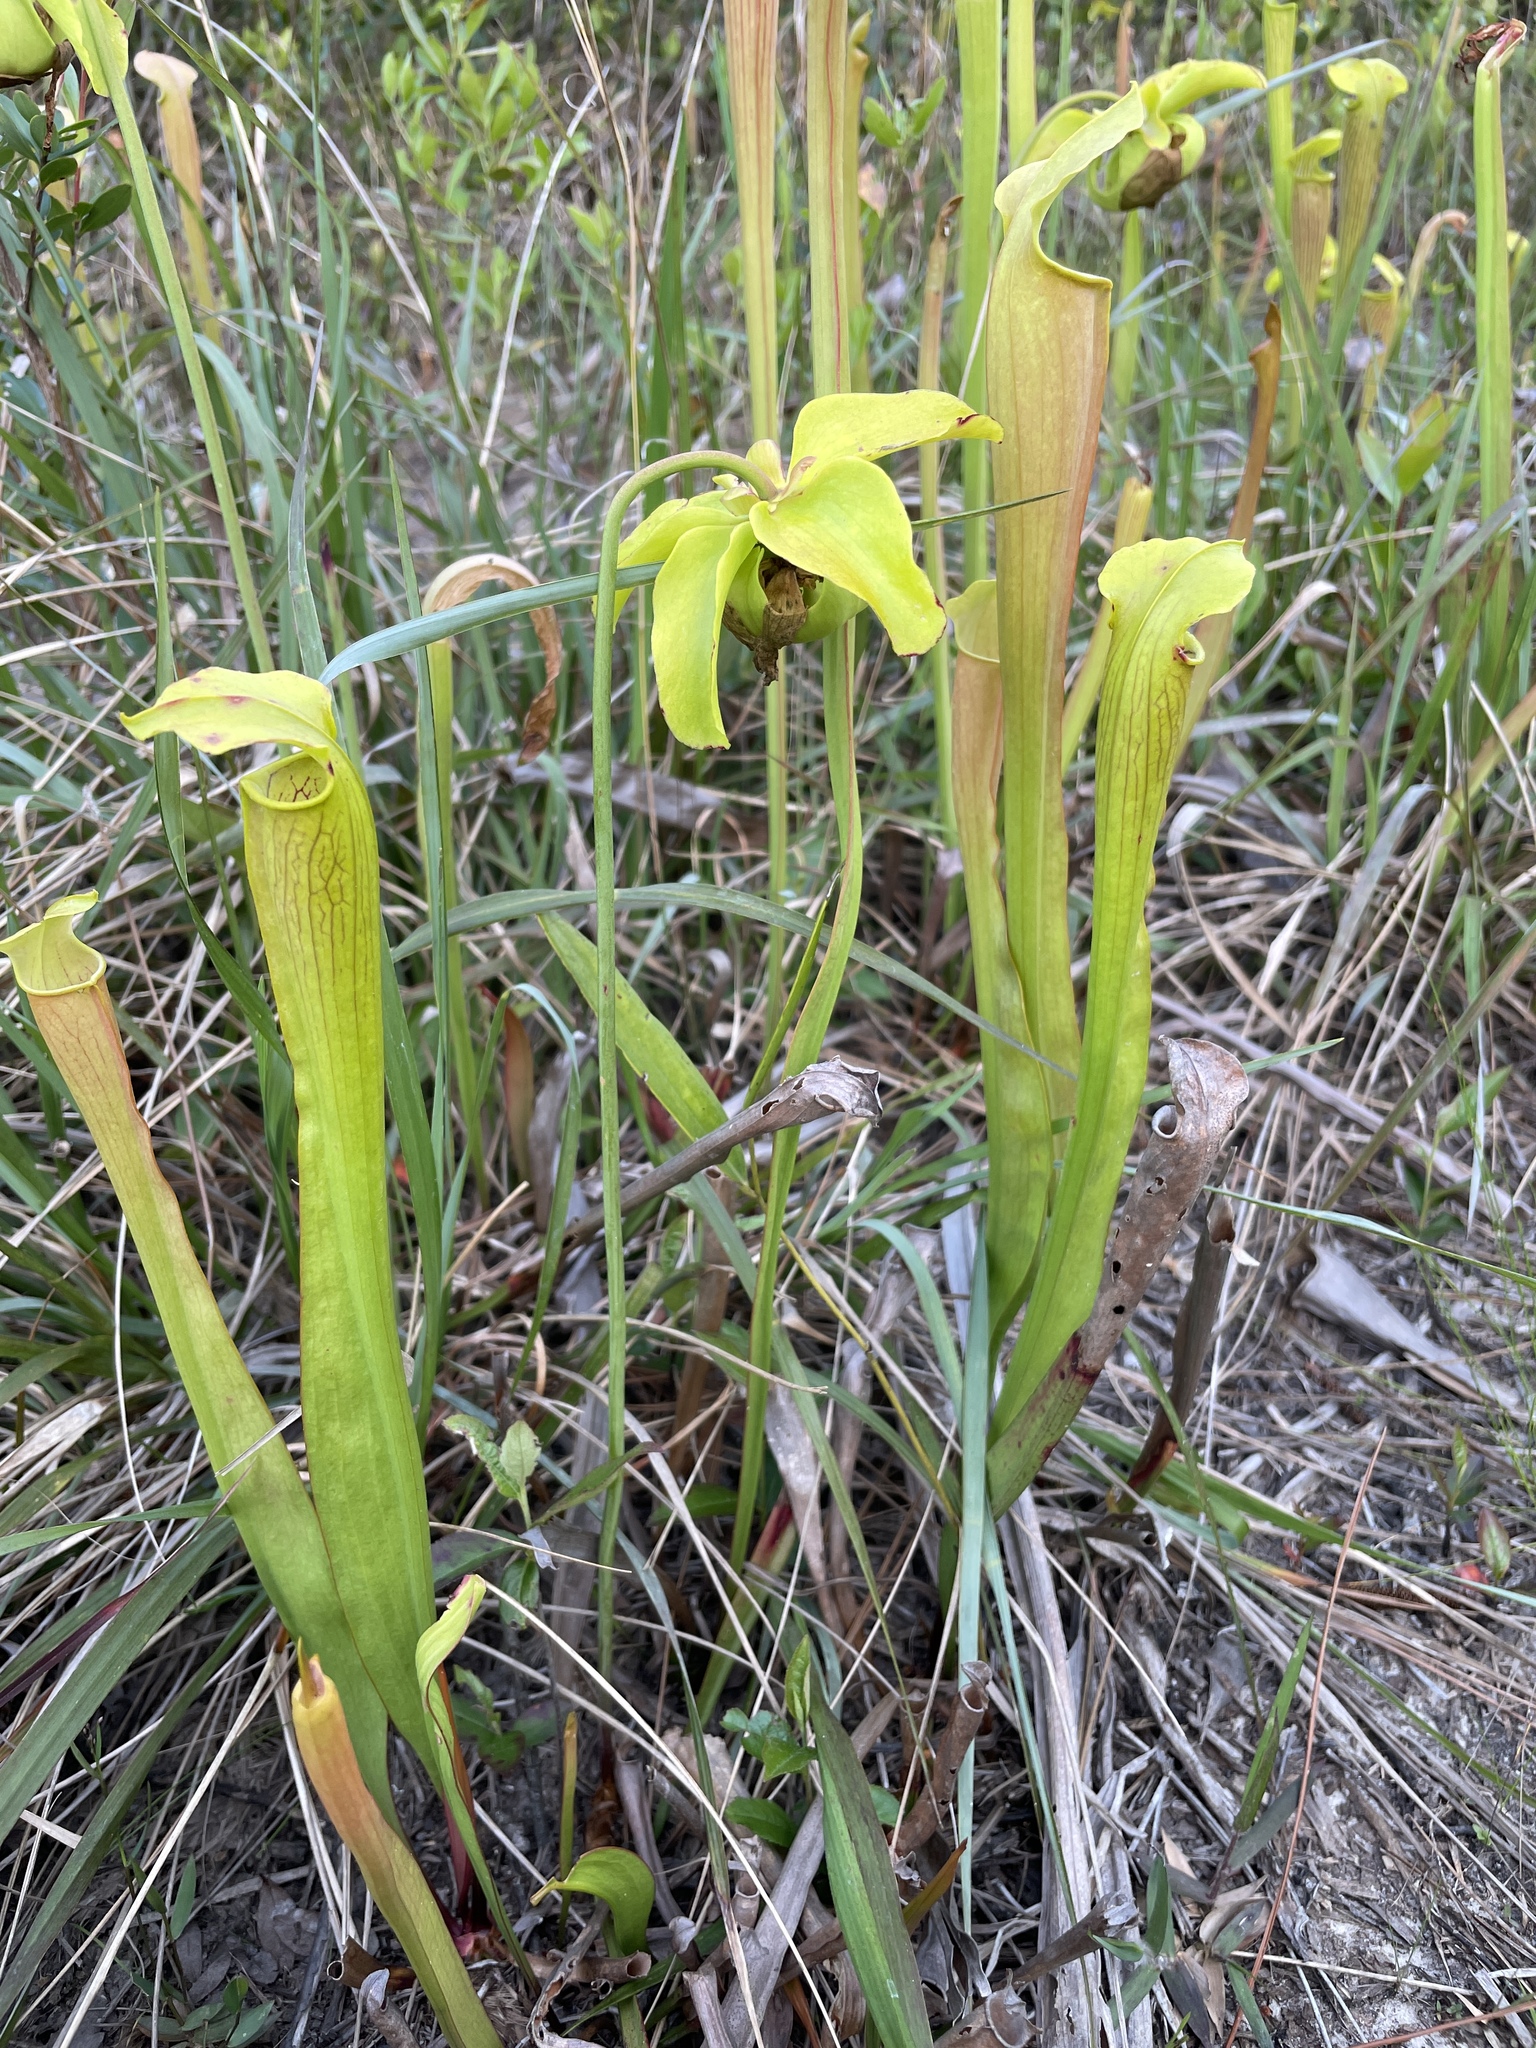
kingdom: Plantae
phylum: Tracheophyta
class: Magnoliopsida
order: Ericales
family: Sarraceniaceae
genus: Sarracenia
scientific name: Sarracenia alata
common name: Yellow trumpets
